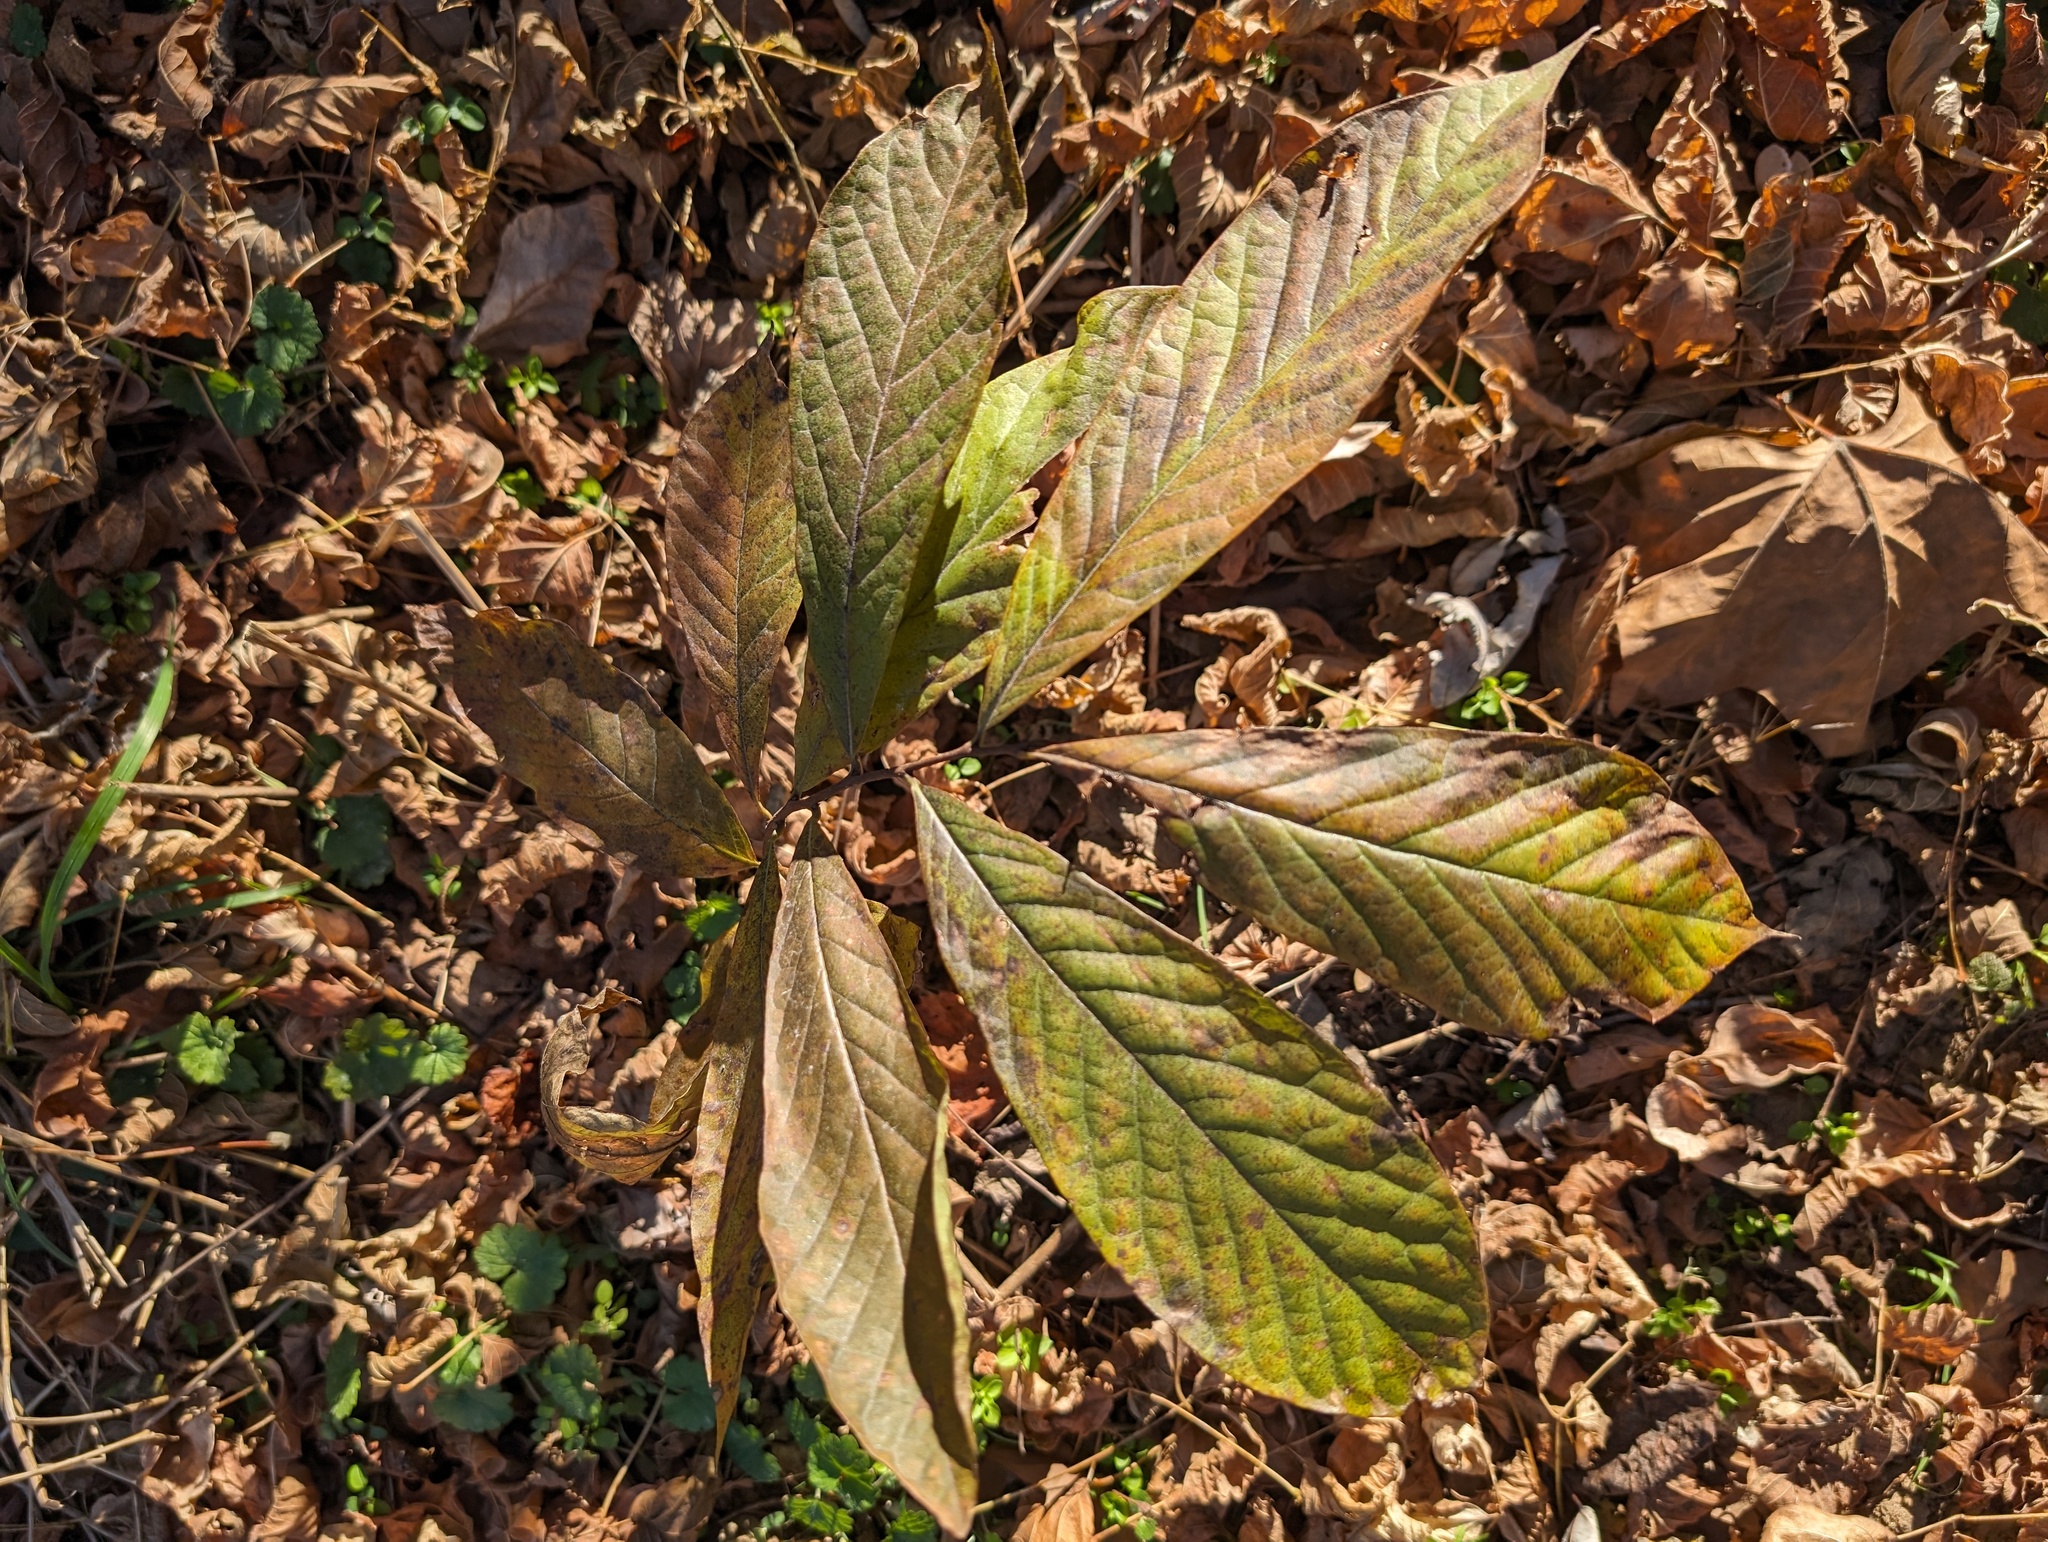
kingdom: Plantae
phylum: Tracheophyta
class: Magnoliopsida
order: Magnoliales
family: Annonaceae
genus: Asimina
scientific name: Asimina triloba
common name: Dog-banana
